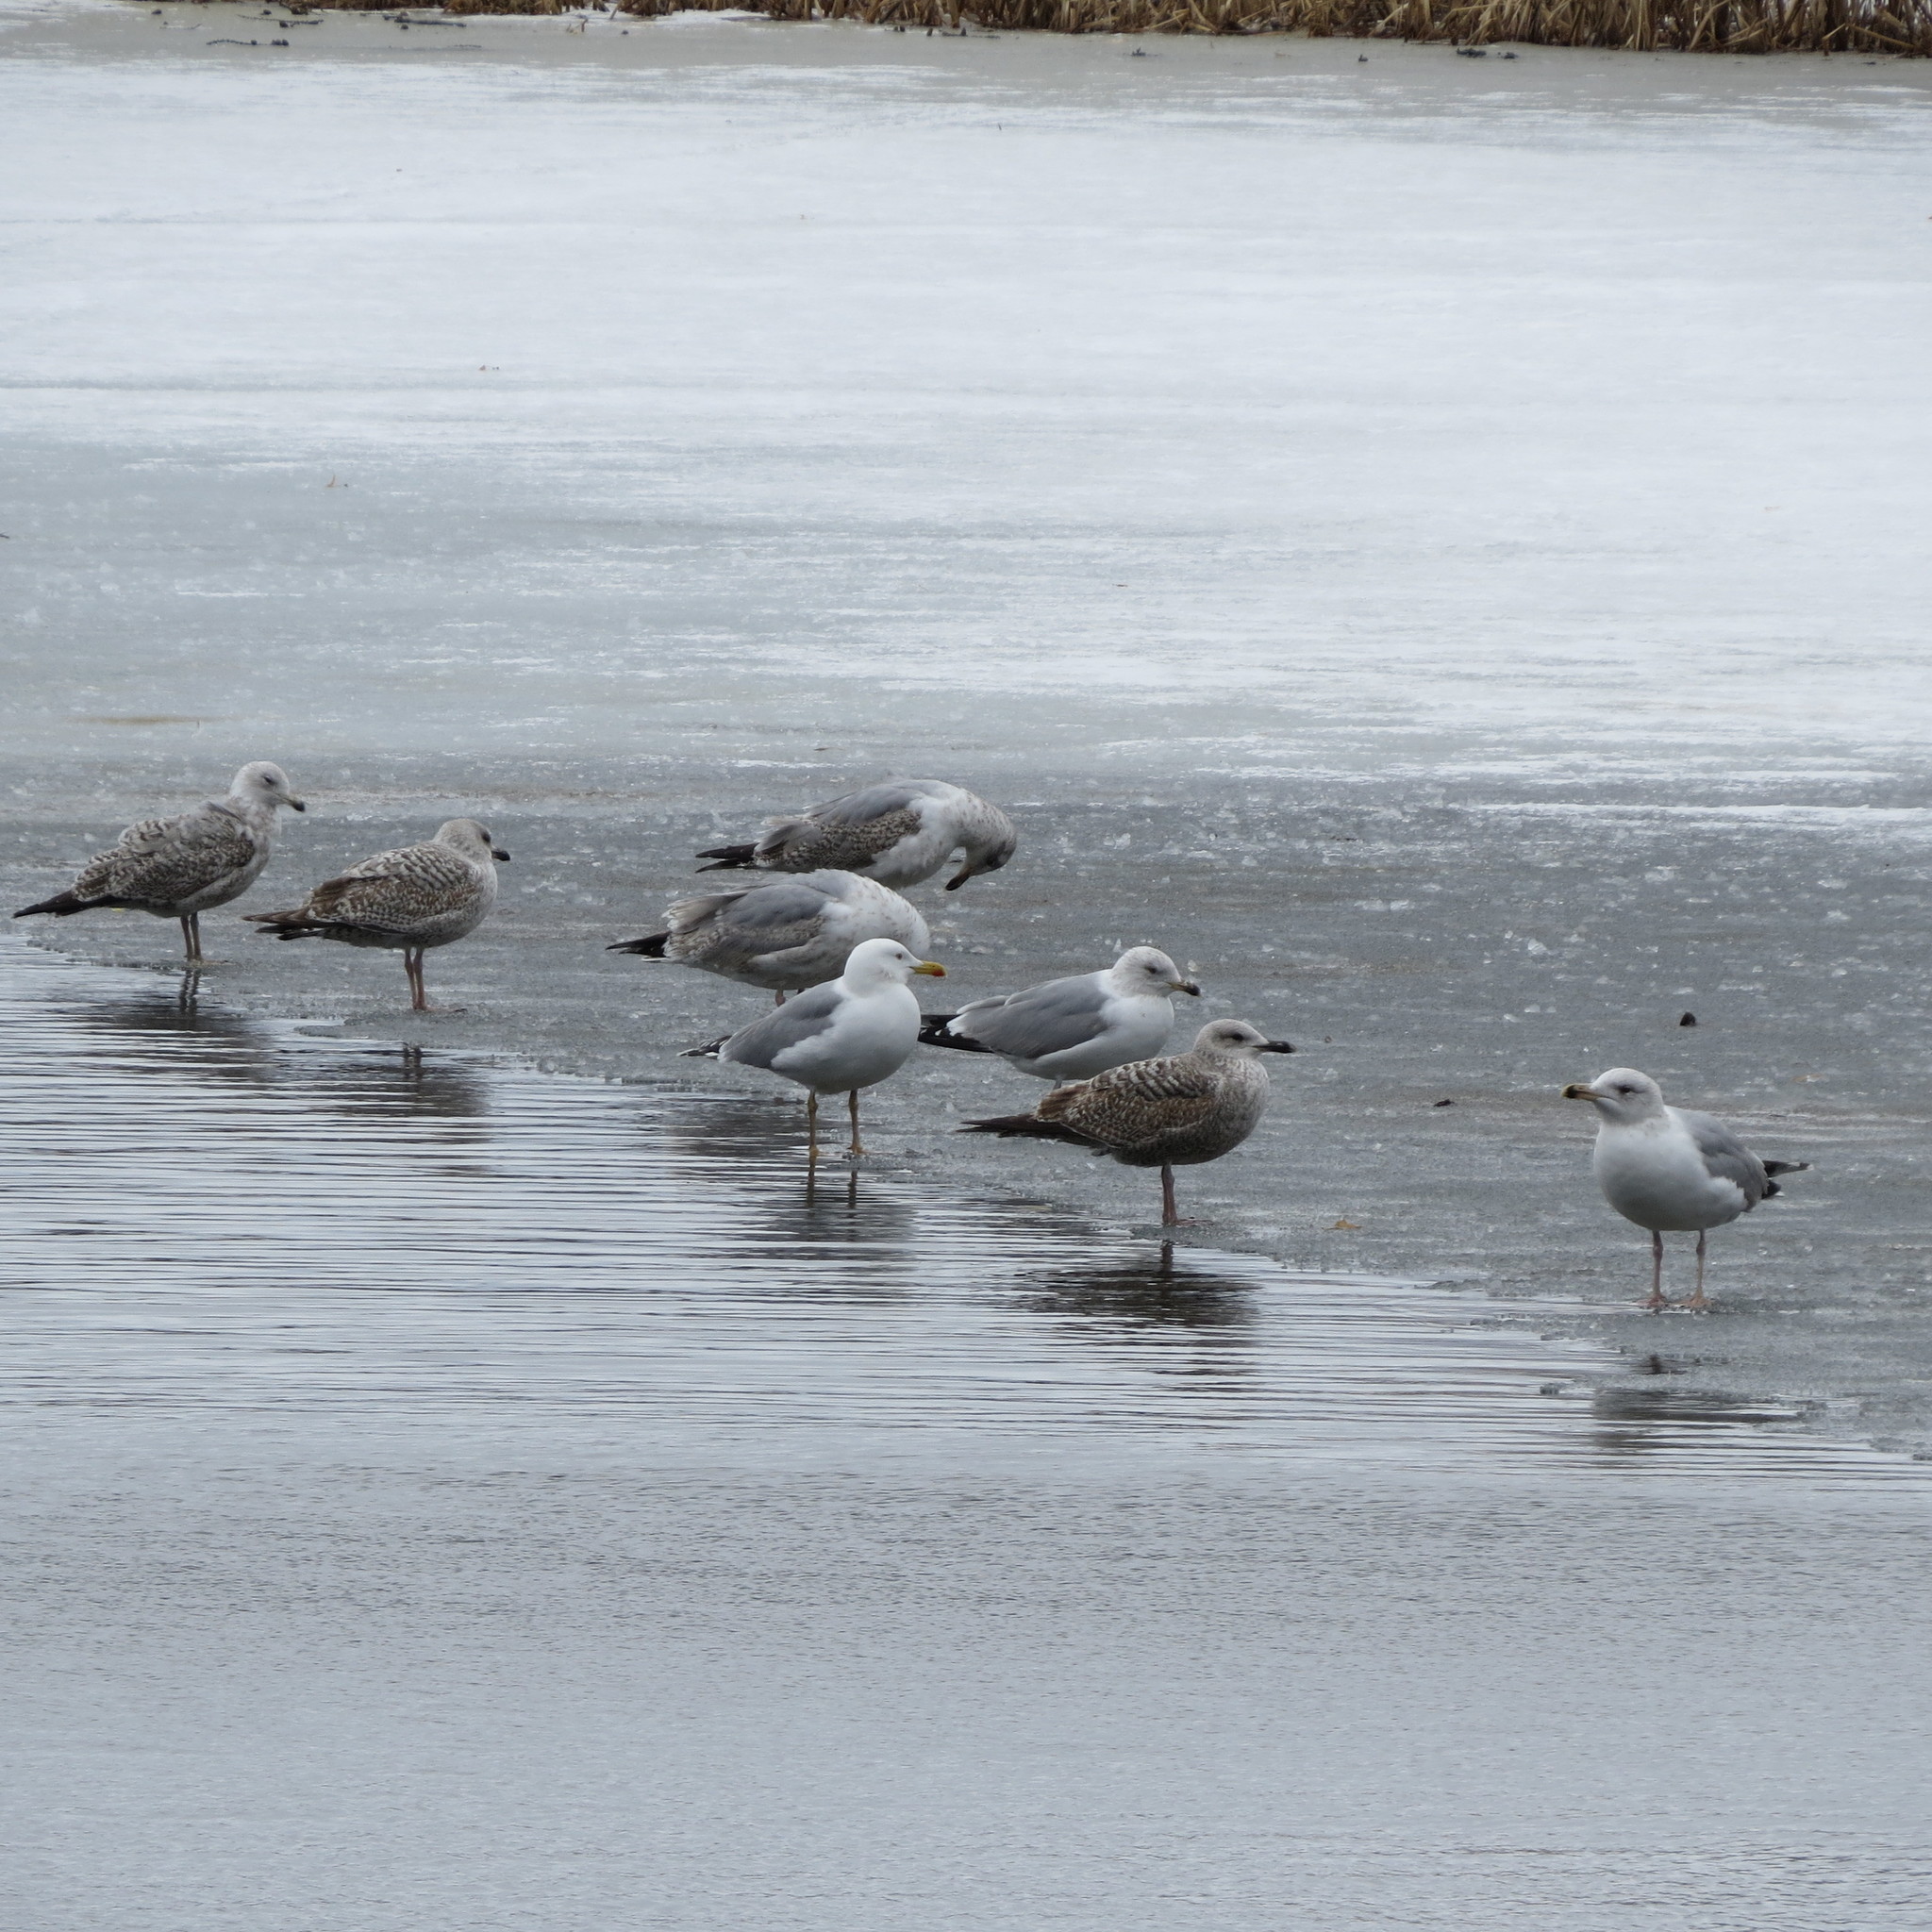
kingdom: Animalia
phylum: Chordata
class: Aves
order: Charadriiformes
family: Laridae
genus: Larus
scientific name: Larus argentatus
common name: Herring gull
